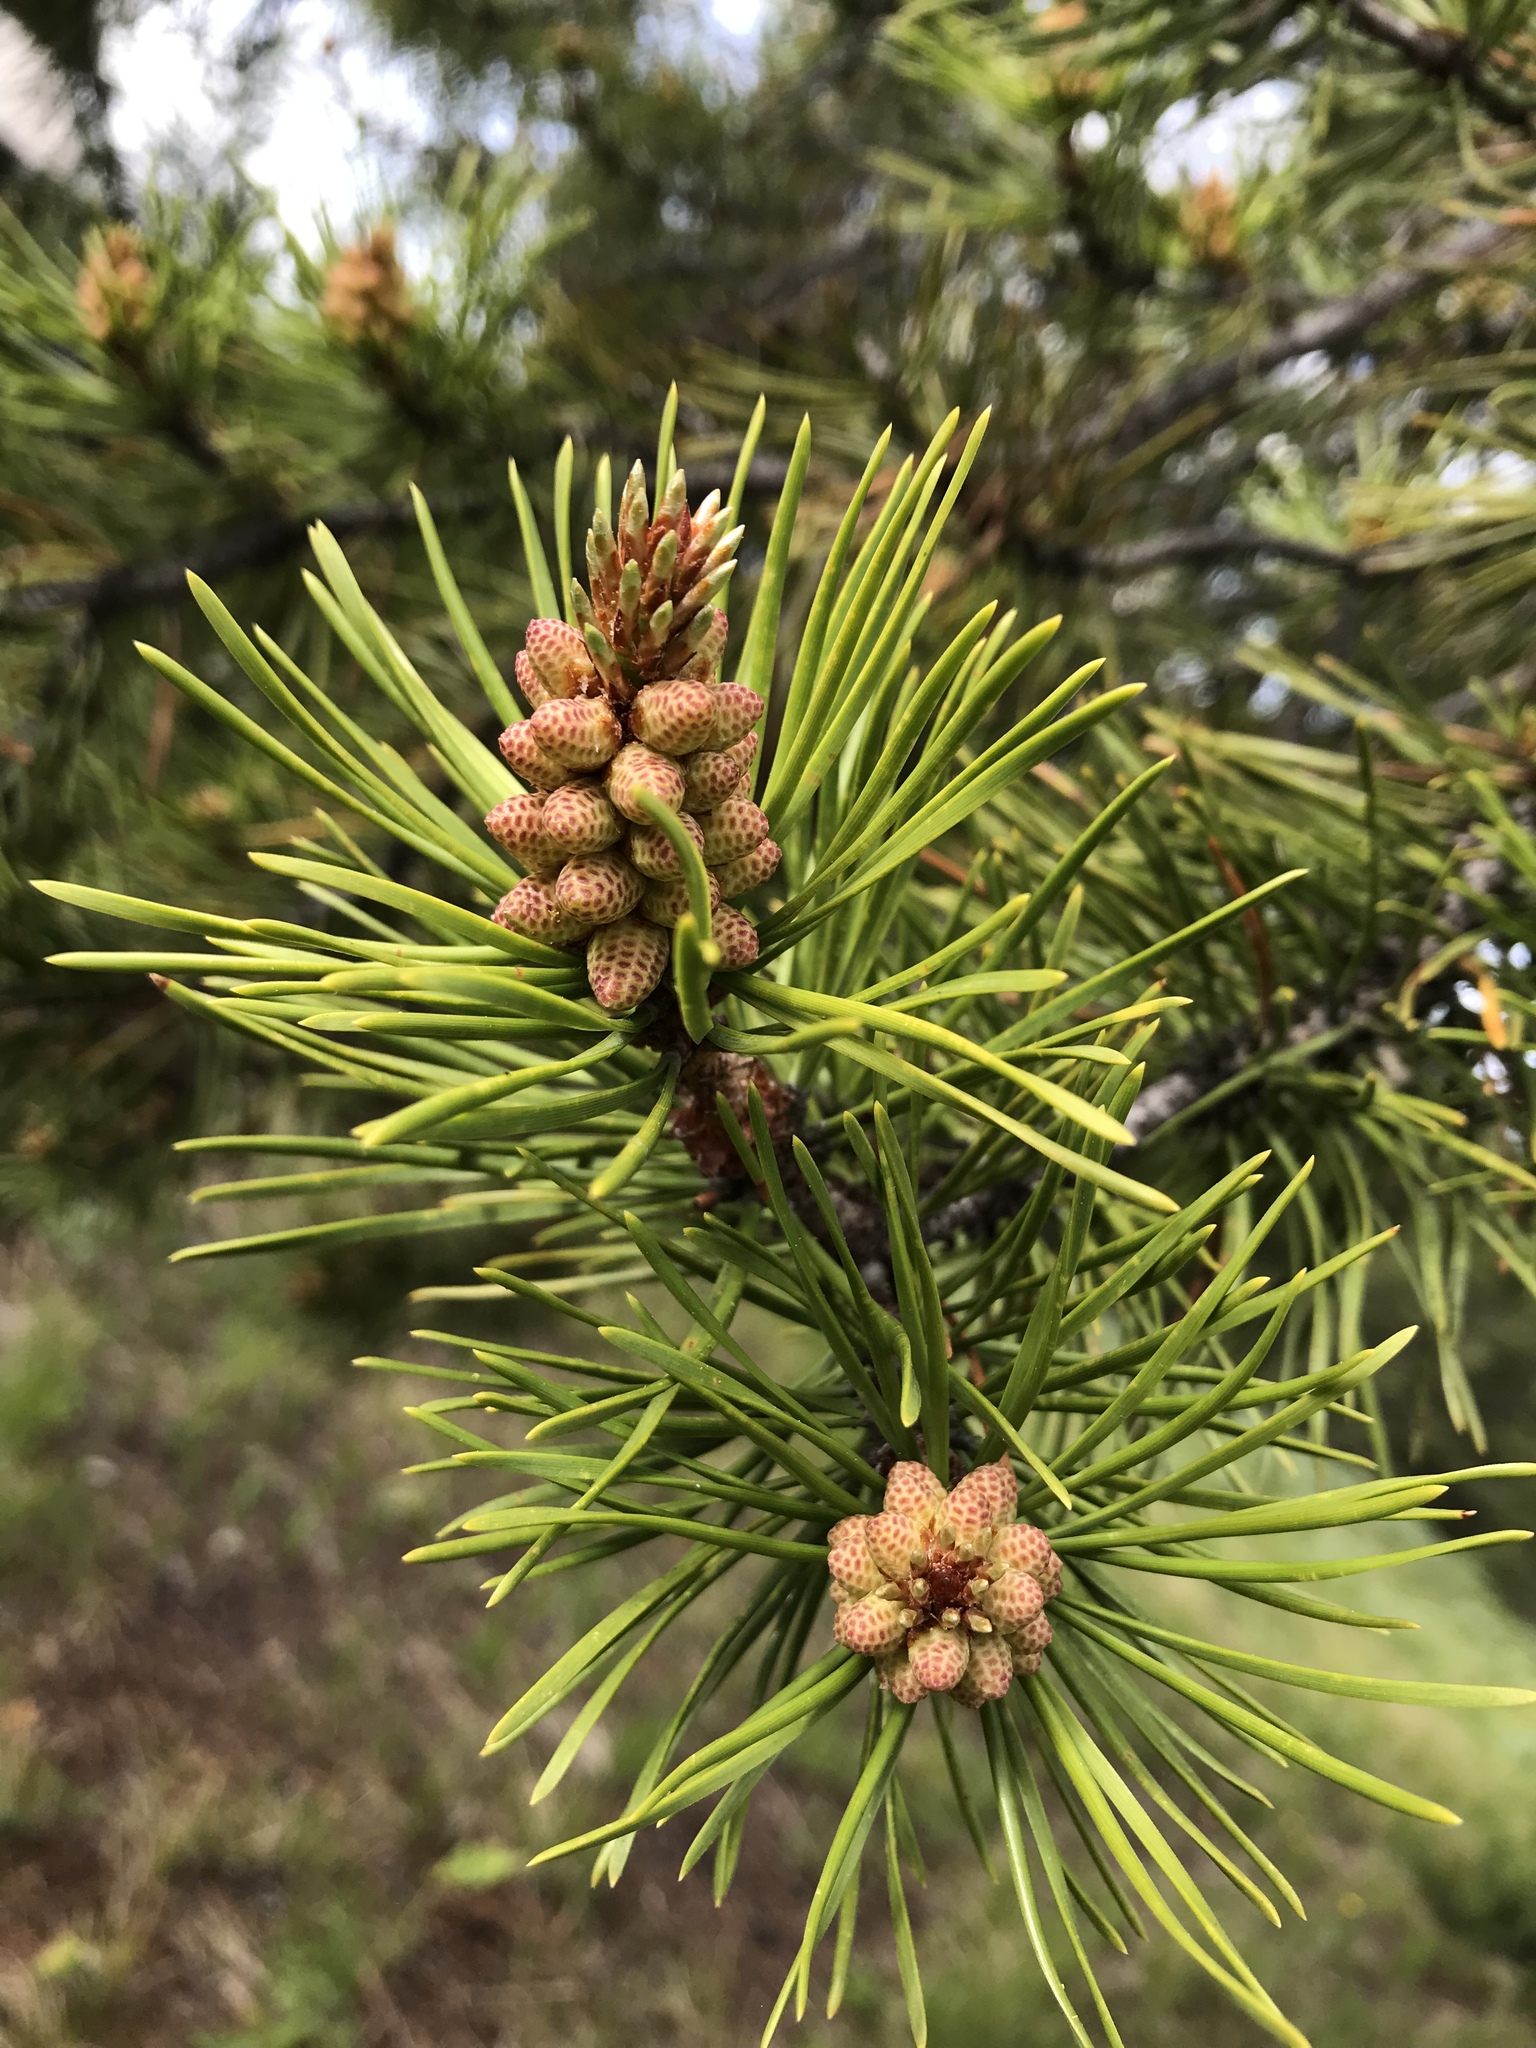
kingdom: Plantae
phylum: Tracheophyta
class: Pinopsida
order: Pinales
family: Pinaceae
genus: Pinus
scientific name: Pinus contorta
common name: Lodgepole pine
